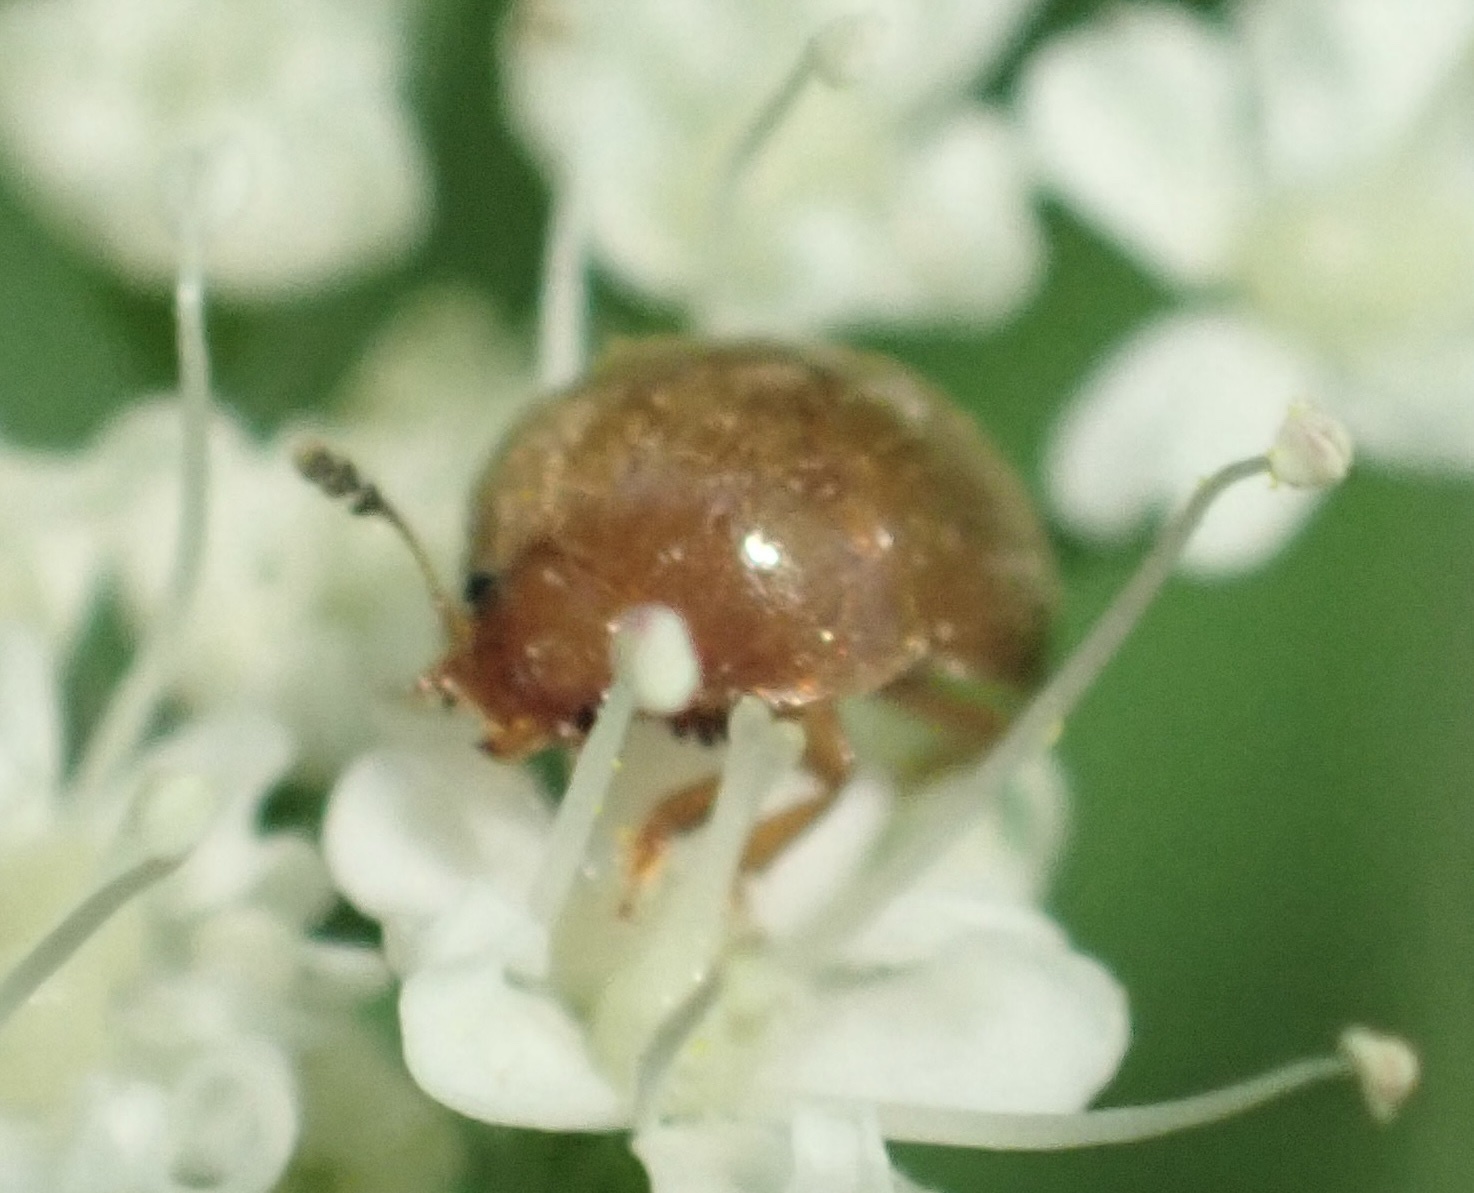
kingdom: Animalia
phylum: Arthropoda
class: Insecta
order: Coleoptera
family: Nitidulidae
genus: Cychramus
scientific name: Cychramus luteus
